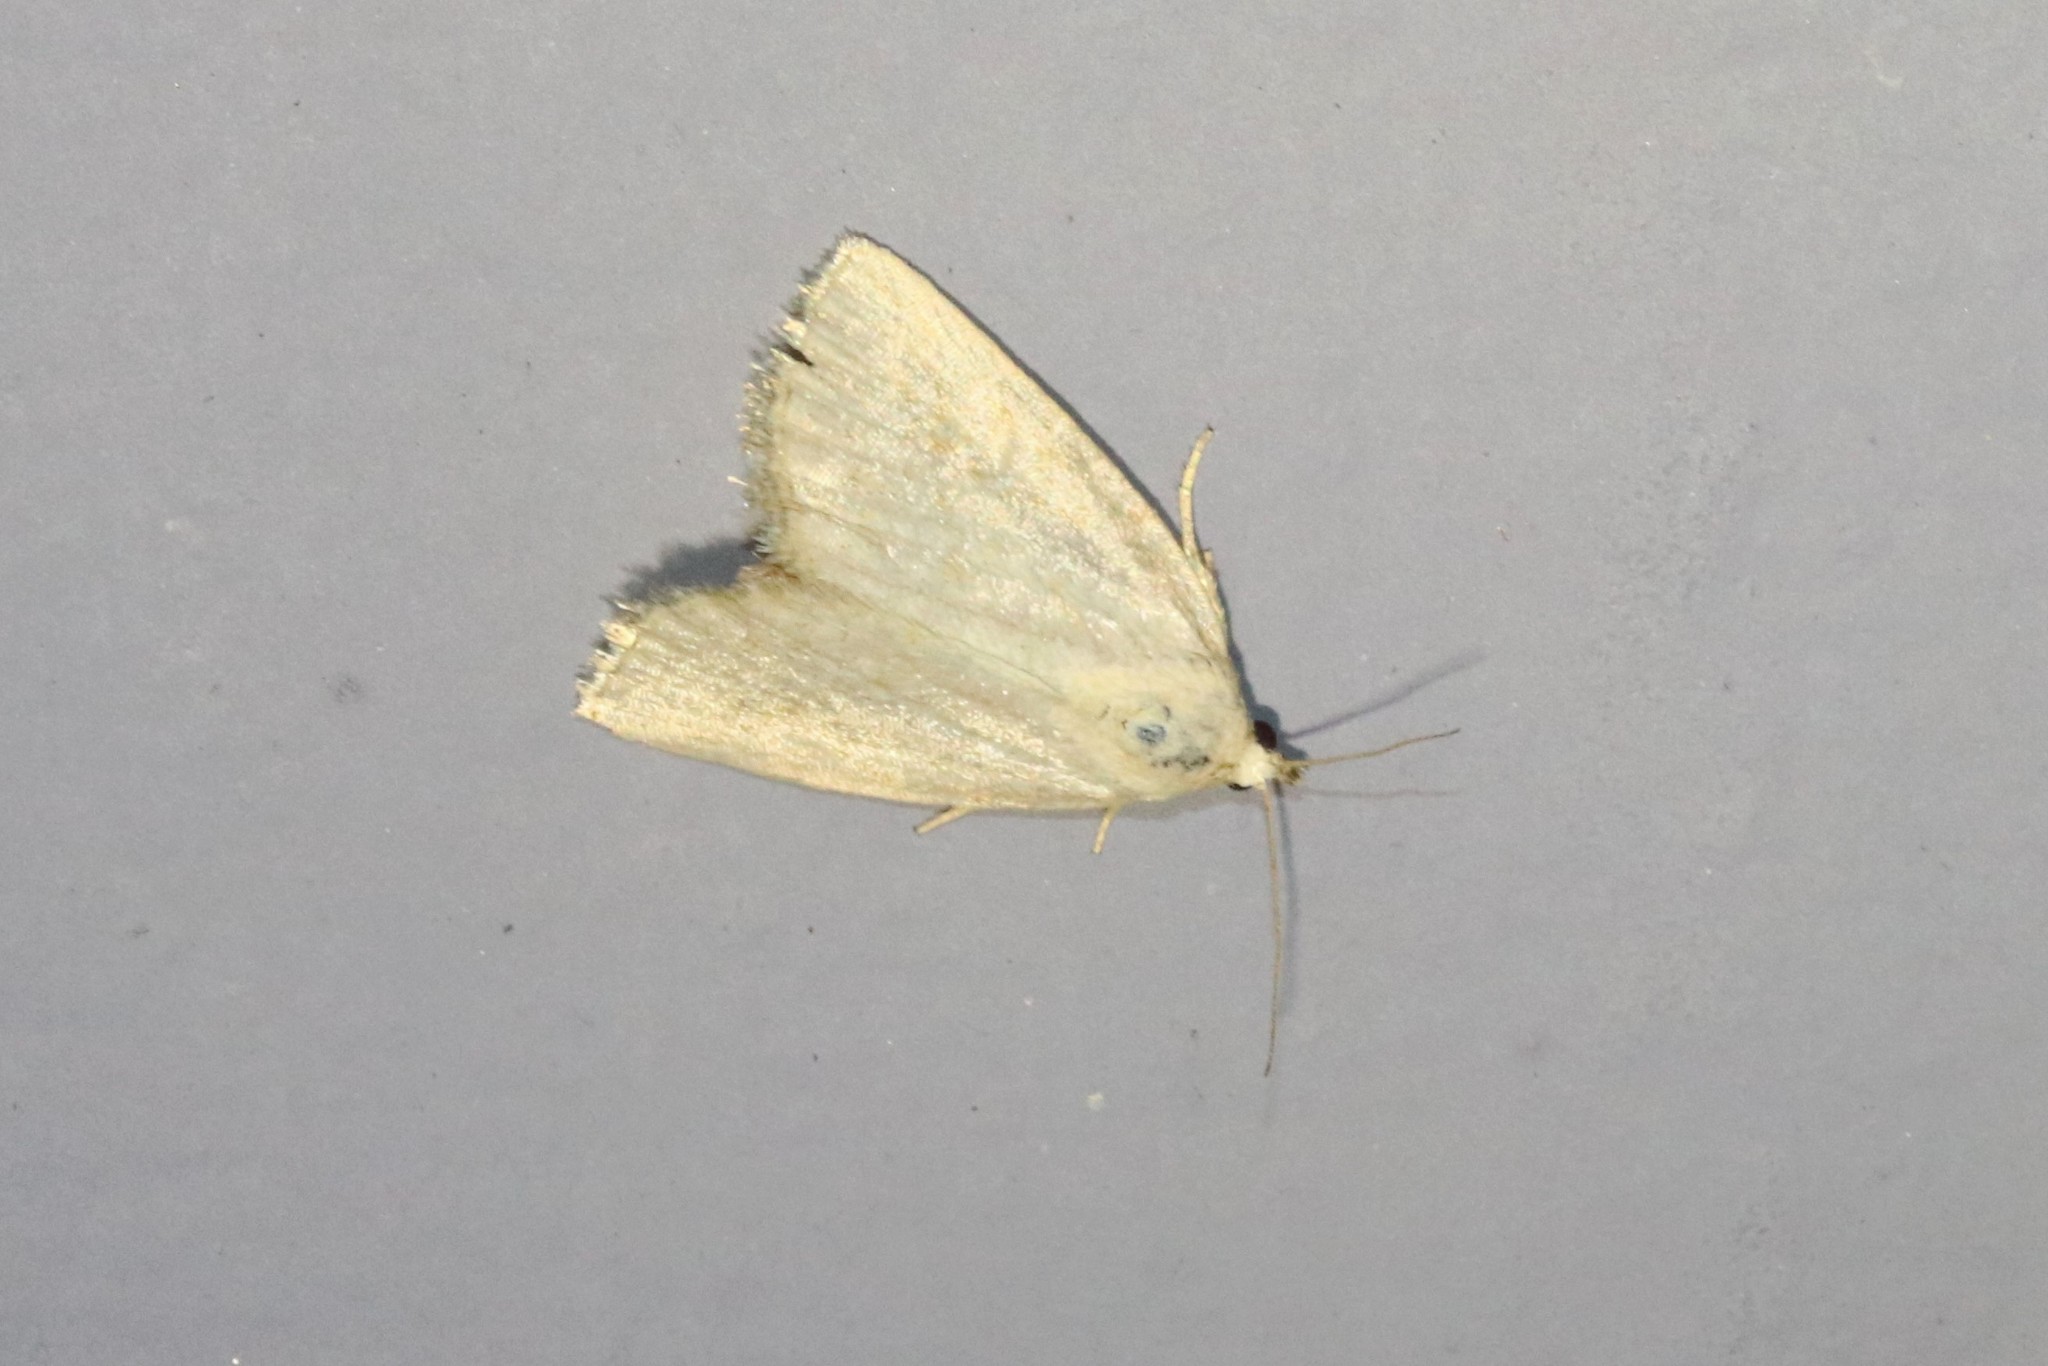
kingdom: Animalia
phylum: Arthropoda
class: Insecta
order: Lepidoptera
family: Noctuidae
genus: Protodeltote
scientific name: Protodeltote albidula
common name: Pale glyph
